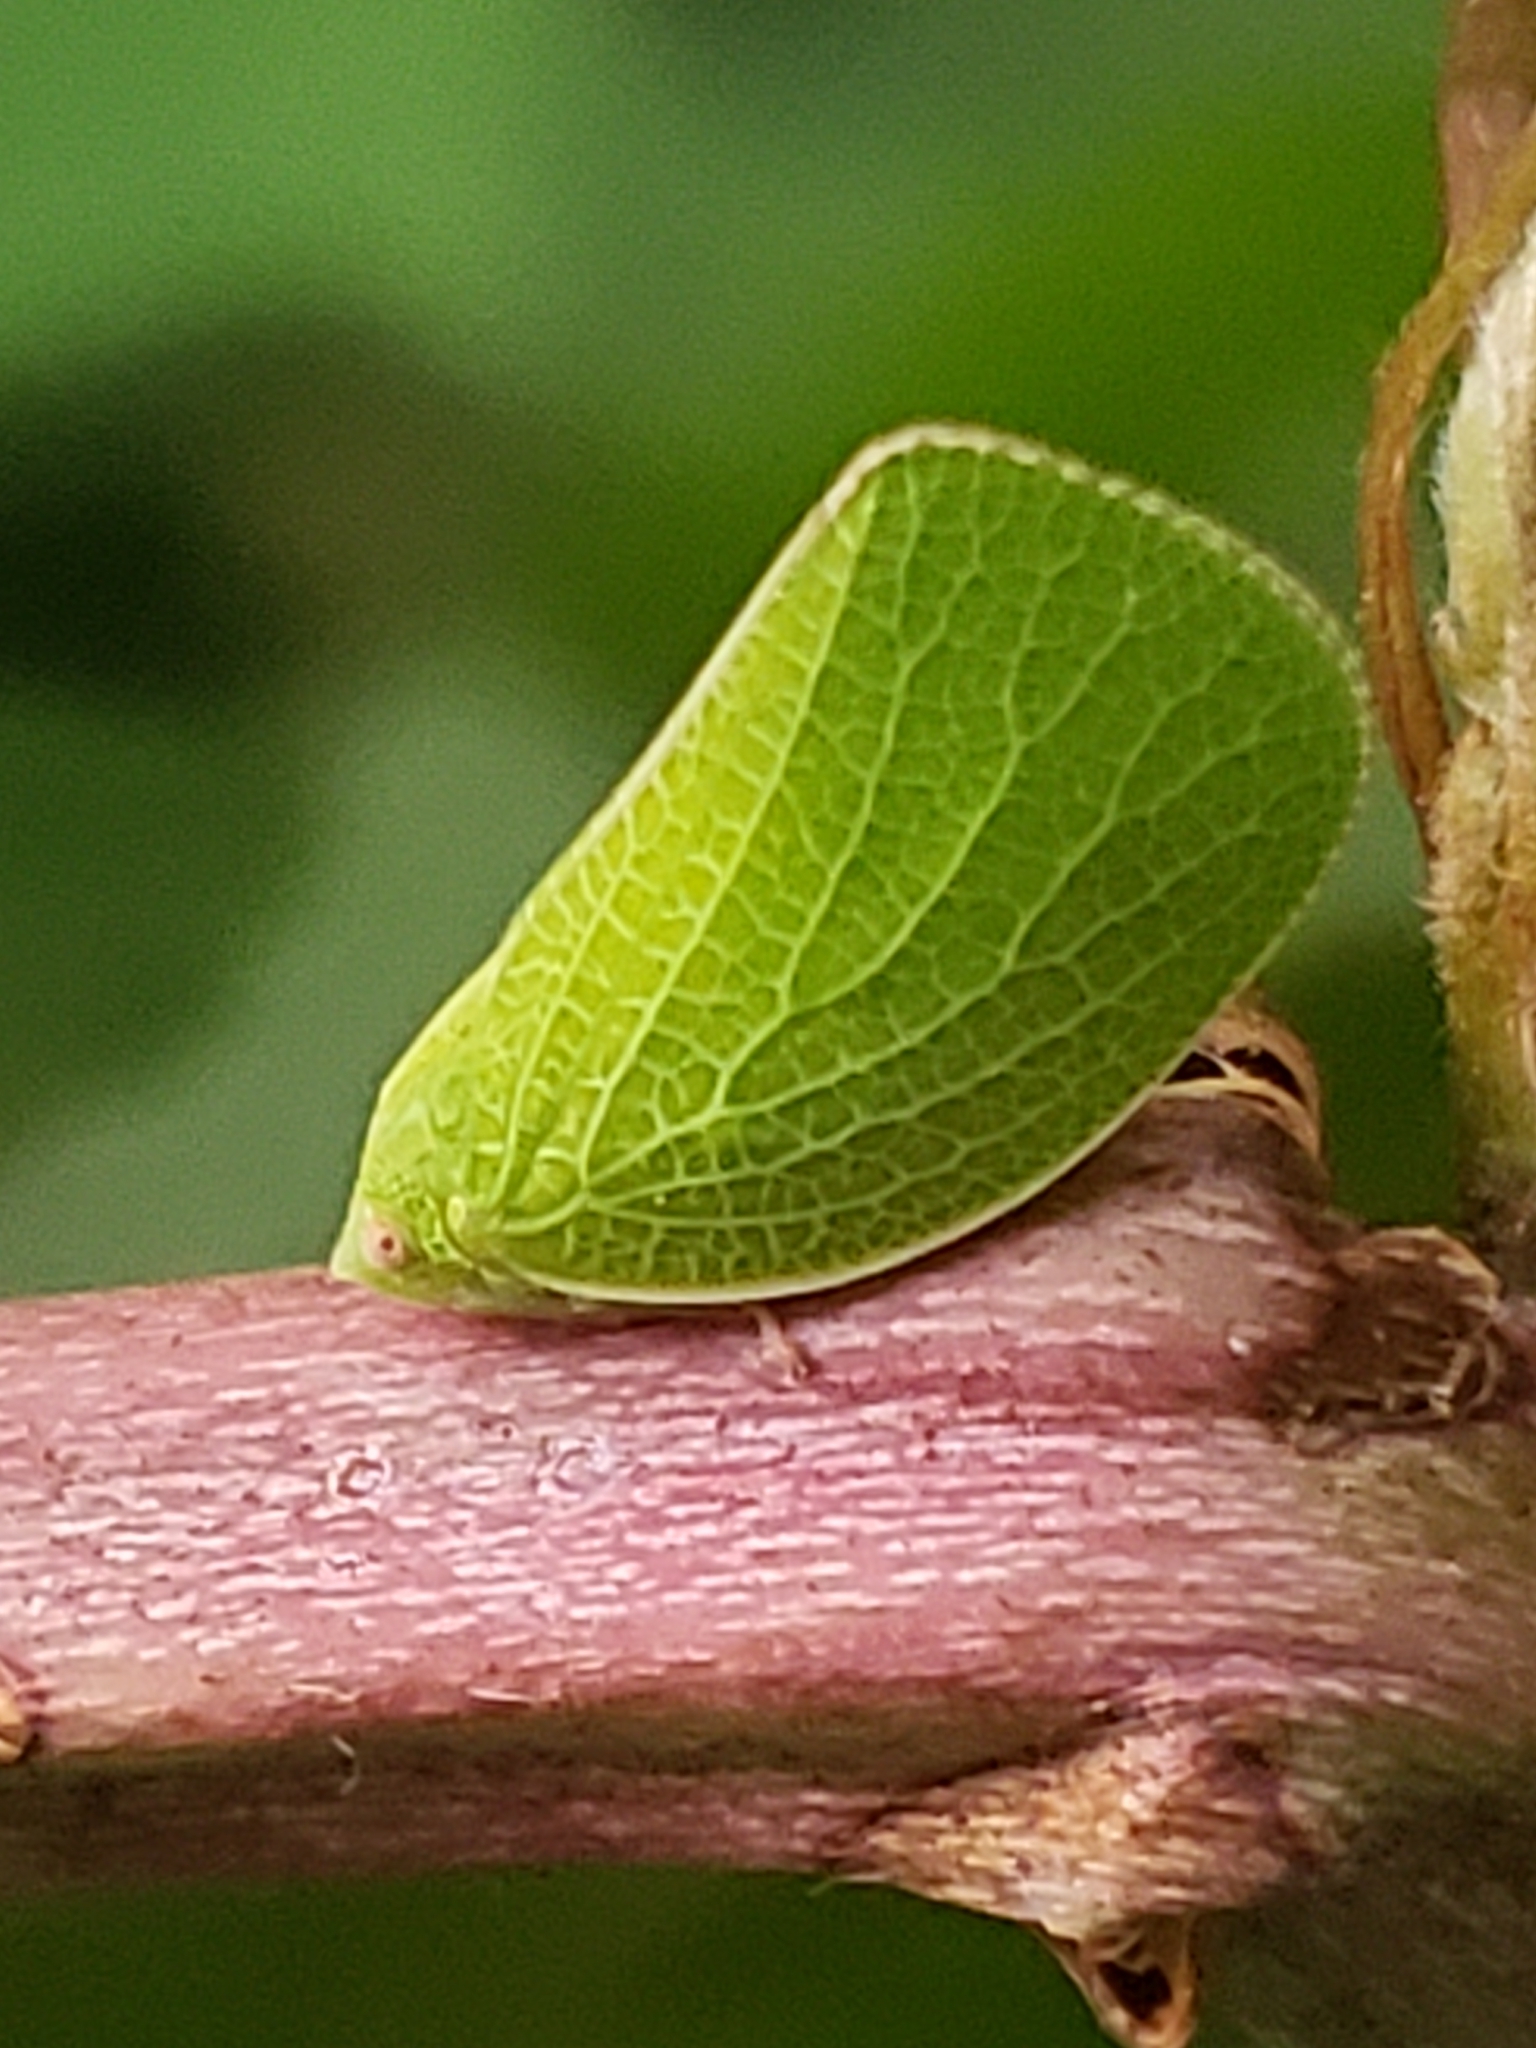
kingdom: Animalia
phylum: Arthropoda
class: Insecta
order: Hemiptera
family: Acanaloniidae
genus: Acanalonia
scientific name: Acanalonia conica
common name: Green cone-headed planthopper
